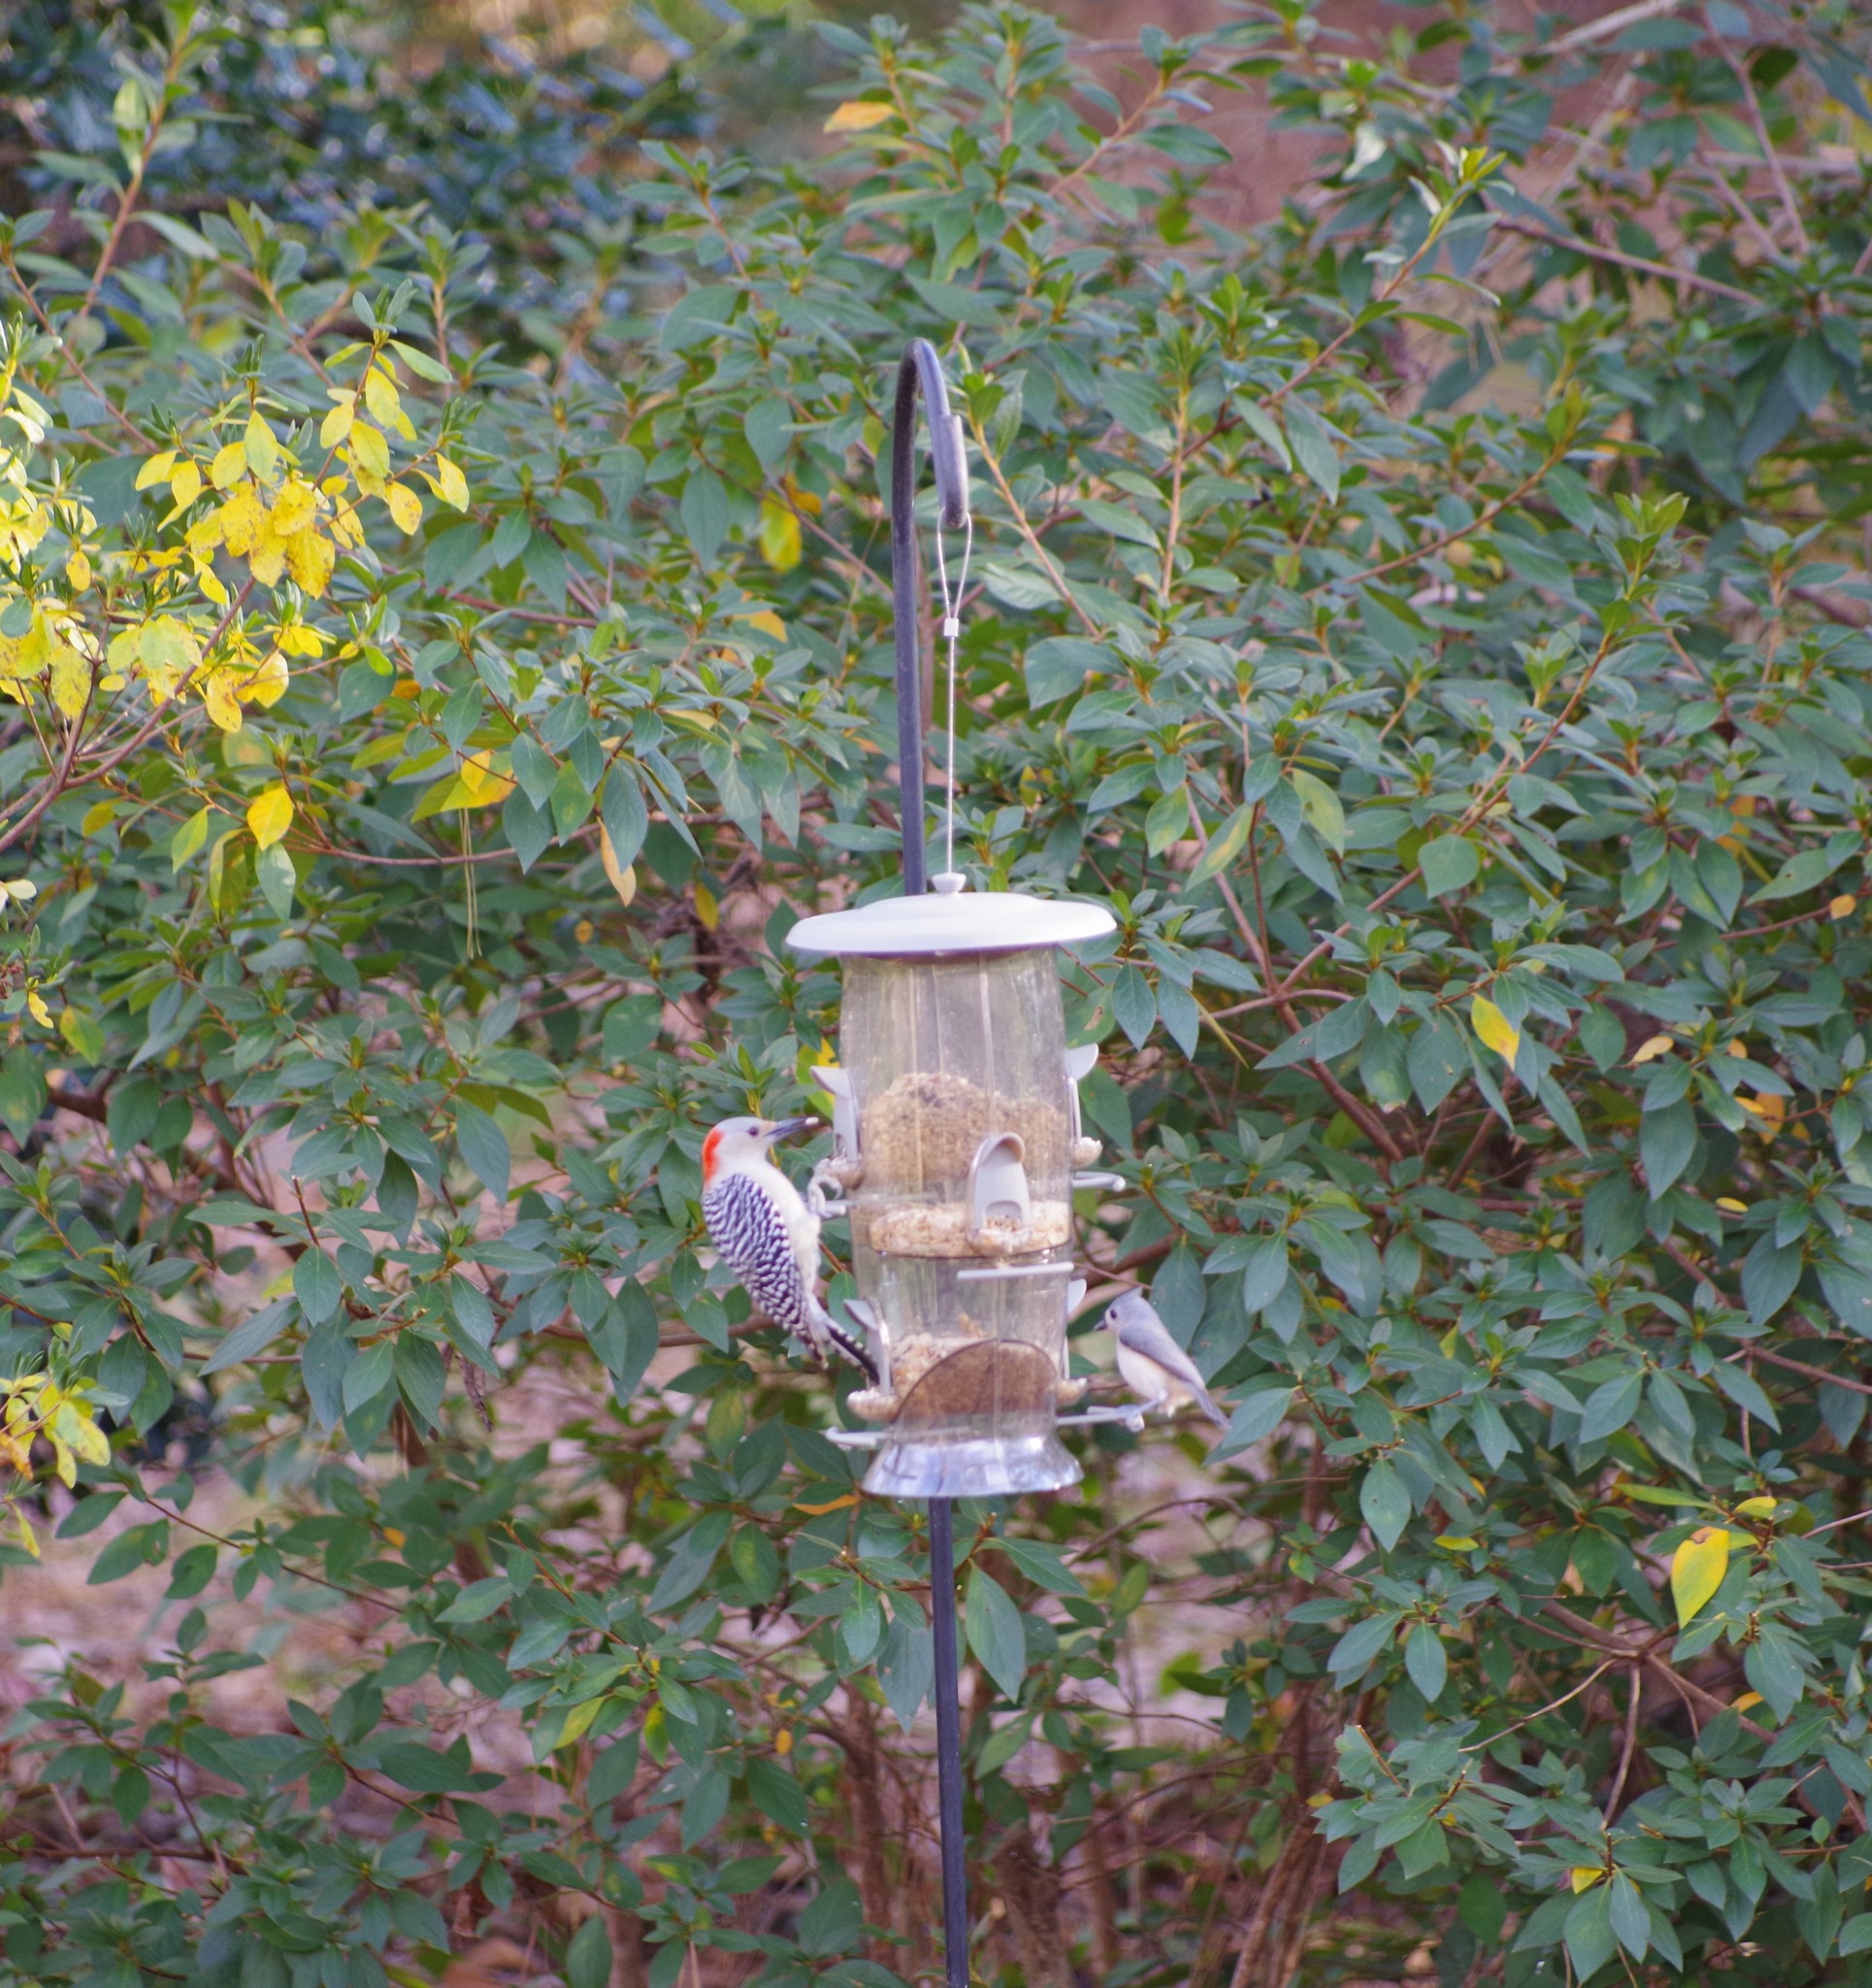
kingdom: Animalia
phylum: Chordata
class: Aves
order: Piciformes
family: Picidae
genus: Melanerpes
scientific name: Melanerpes carolinus
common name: Red-bellied woodpecker
